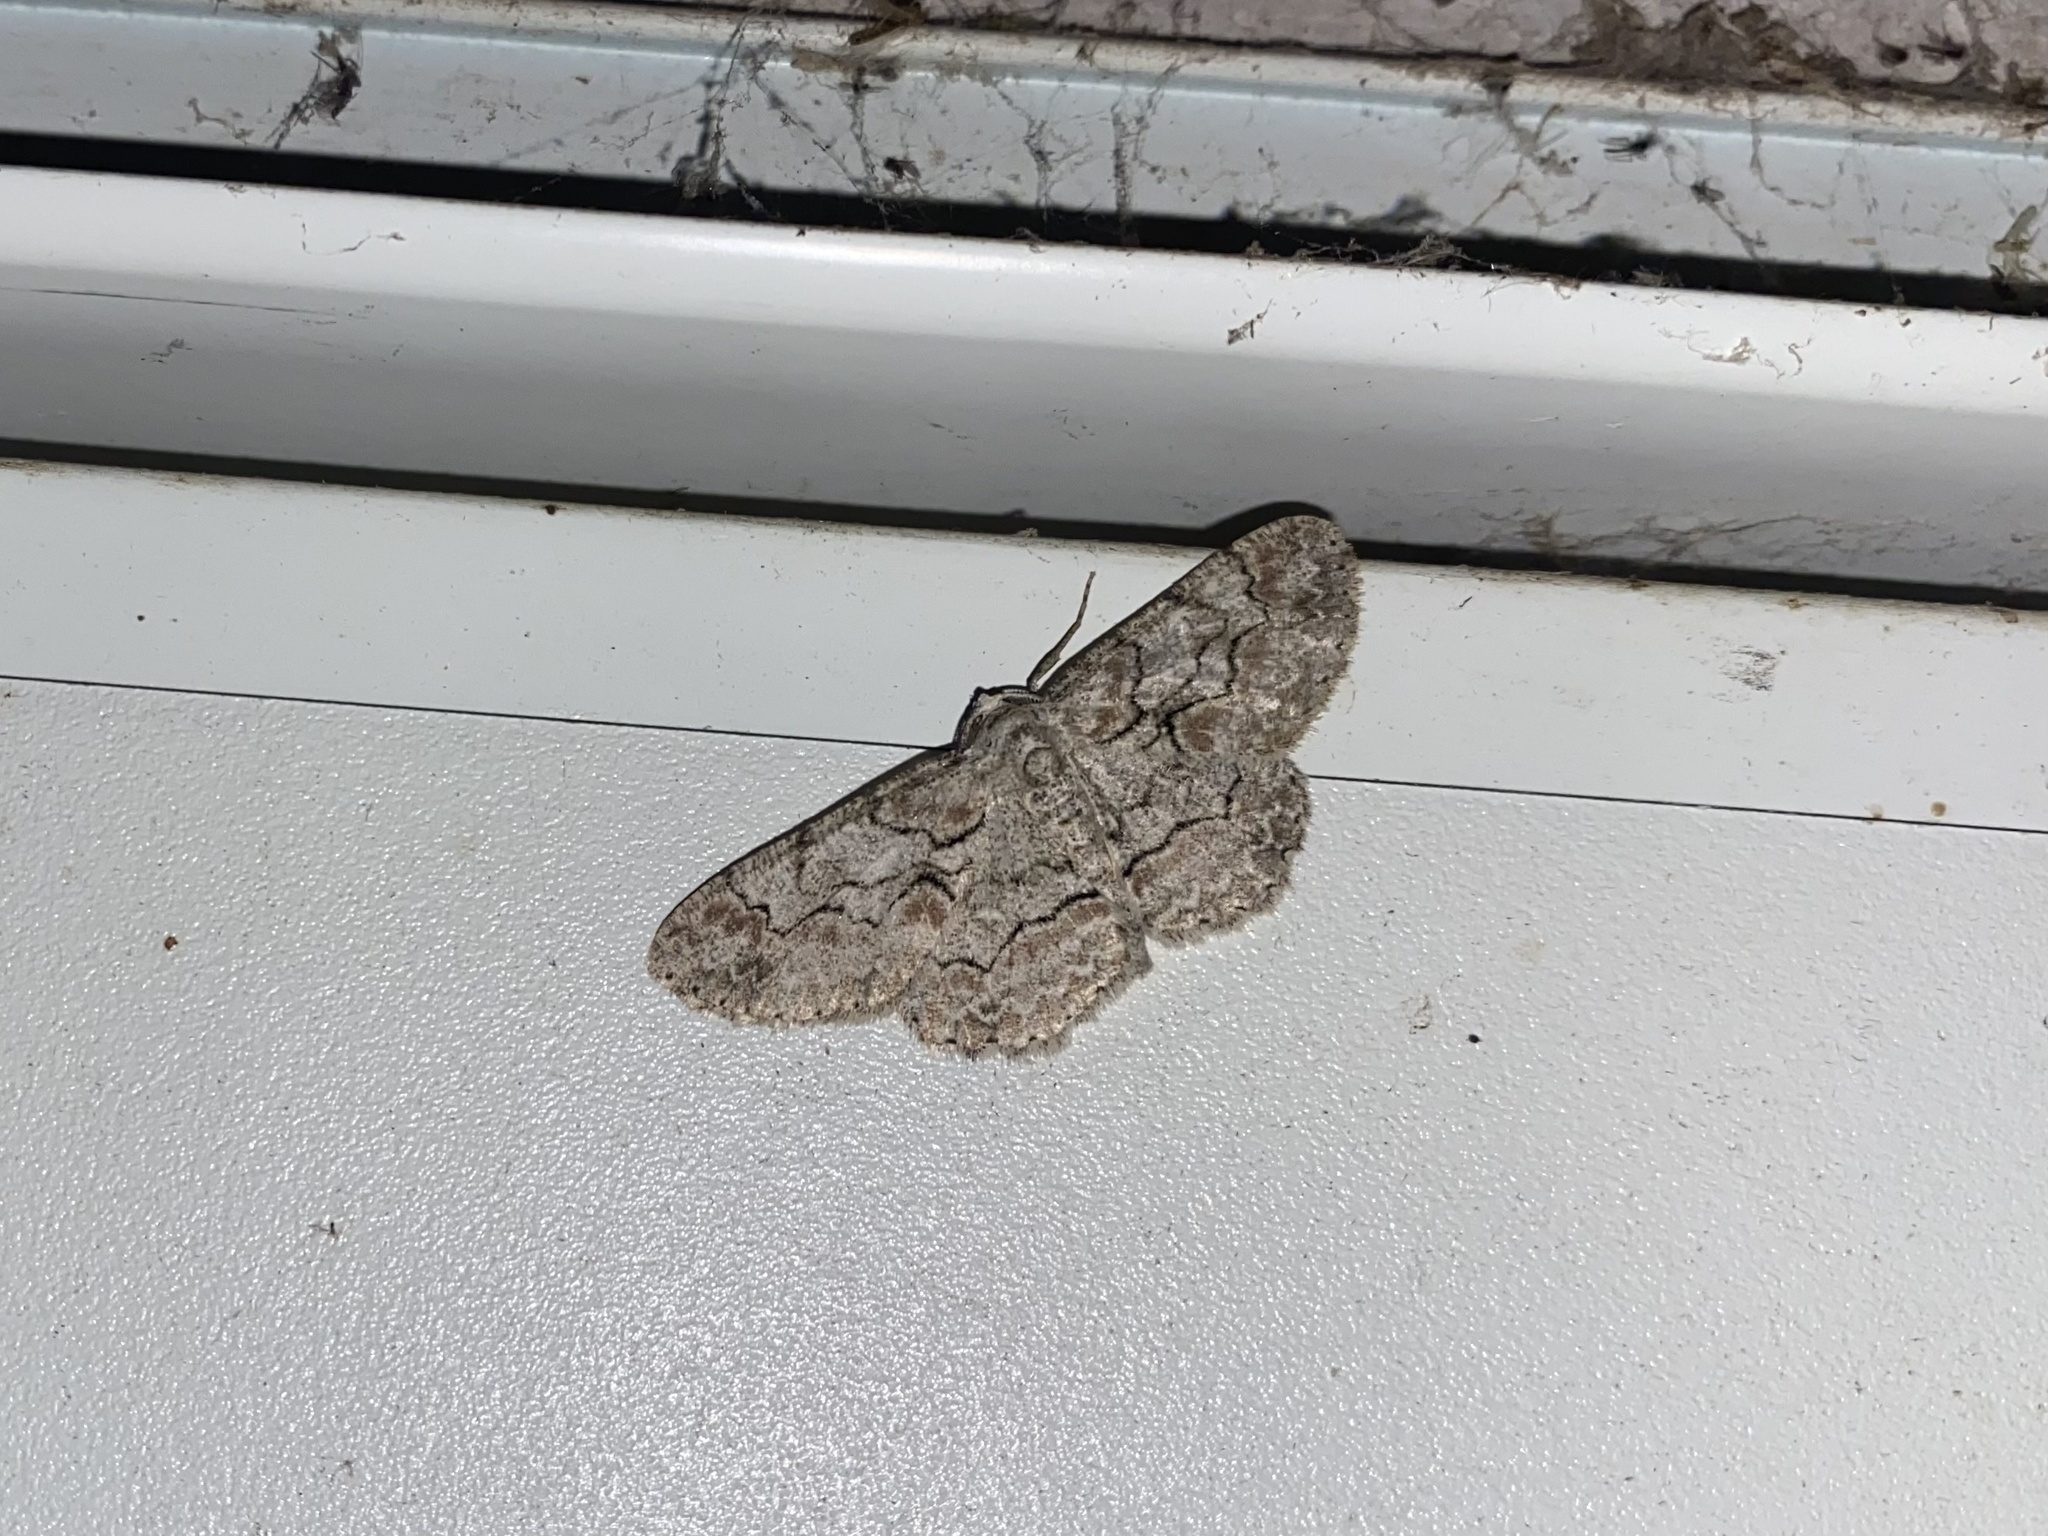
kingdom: Animalia
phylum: Arthropoda
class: Insecta
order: Lepidoptera
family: Geometridae
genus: Iridopsis
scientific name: Iridopsis defectaria
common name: Brown-shaded gray
